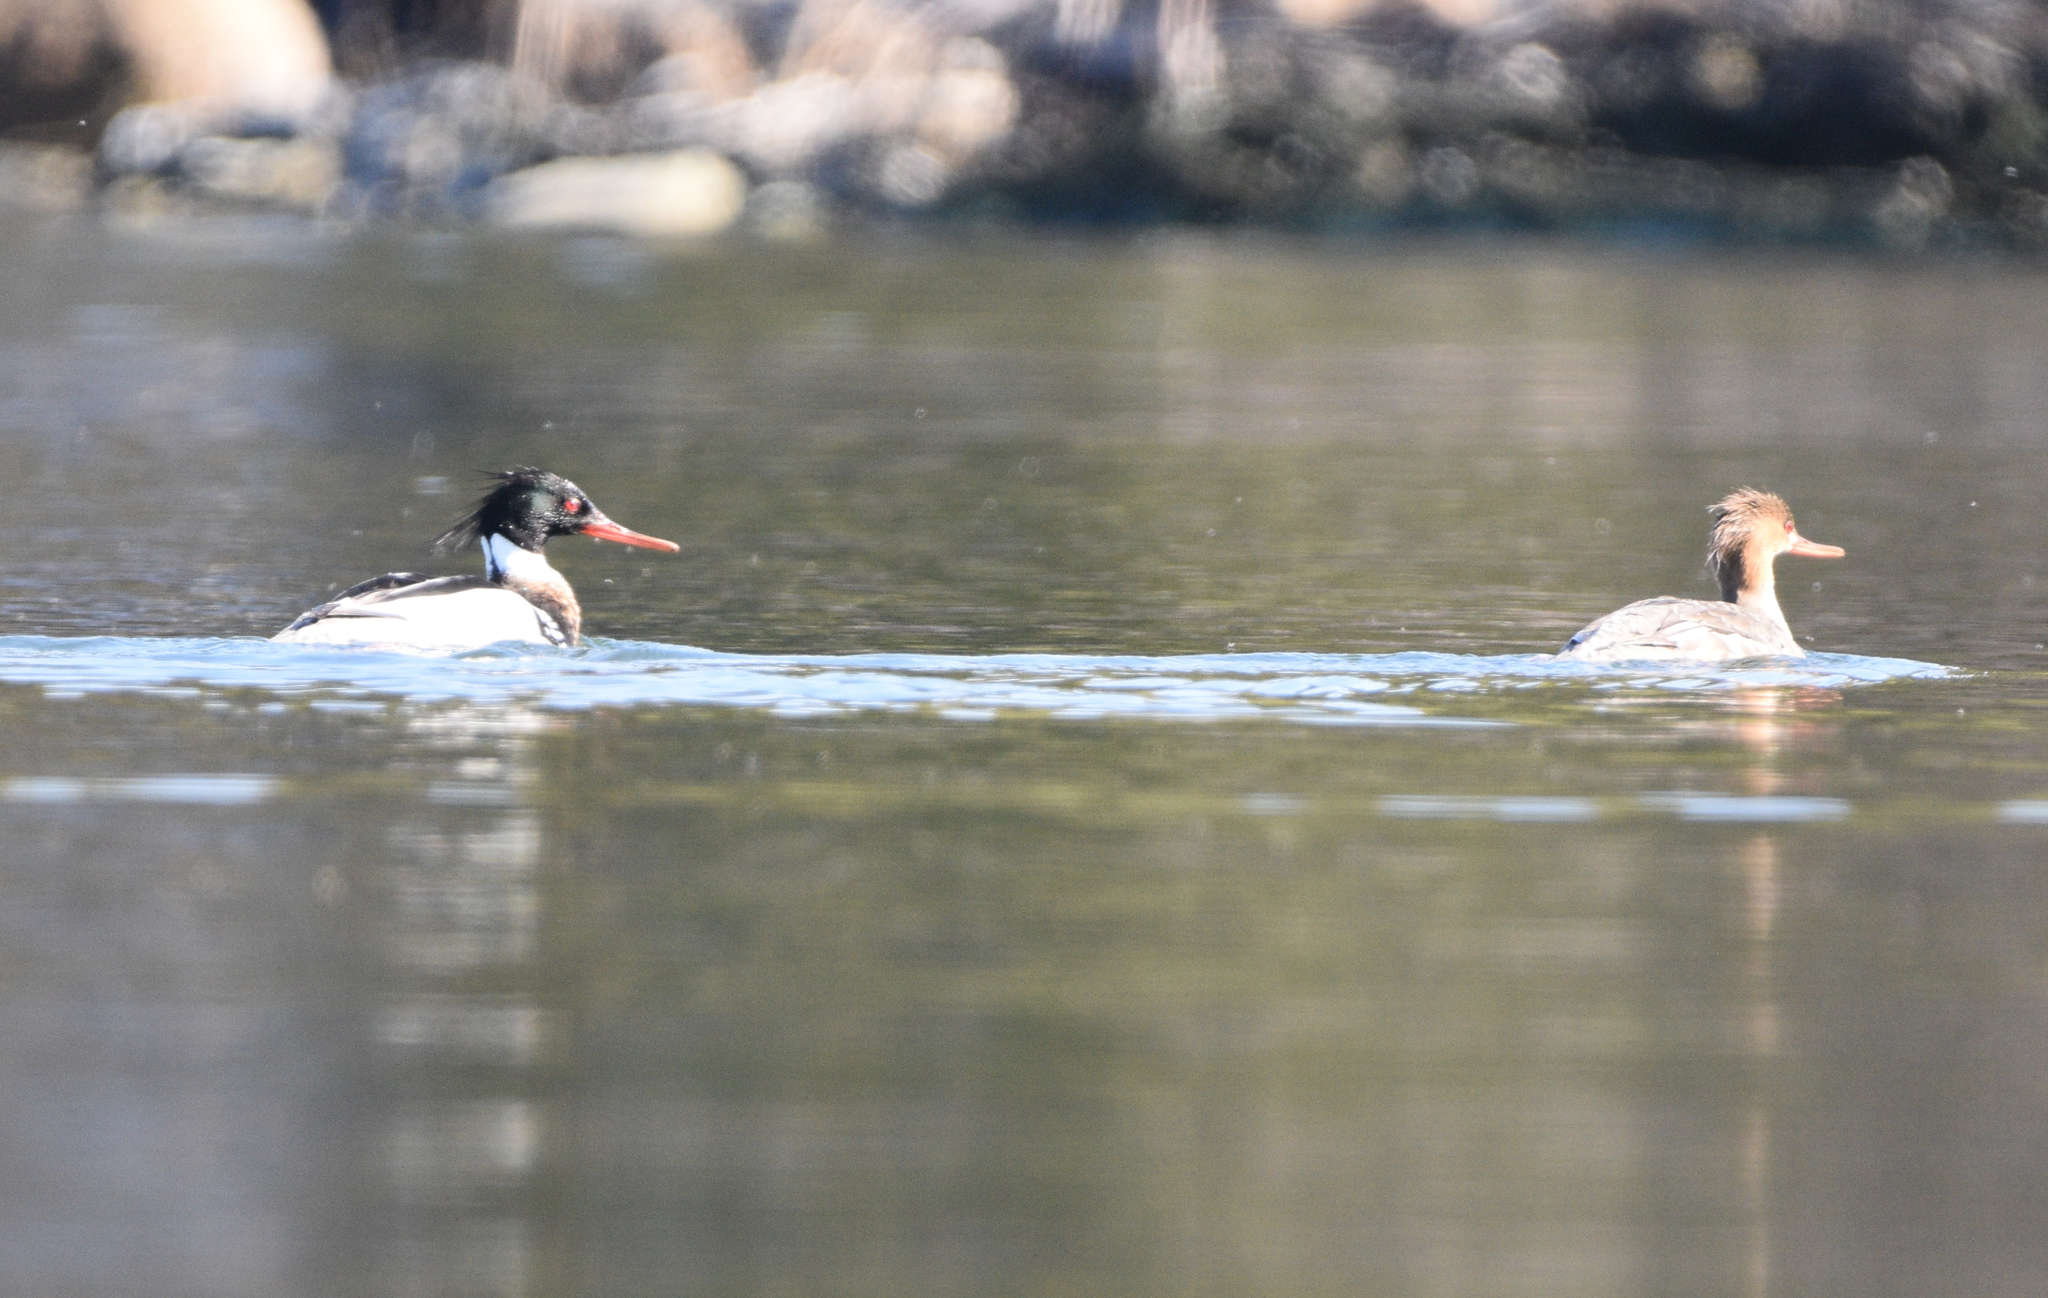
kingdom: Animalia
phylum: Chordata
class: Aves
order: Anseriformes
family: Anatidae
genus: Mergus
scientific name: Mergus serrator
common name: Red-breasted merganser
